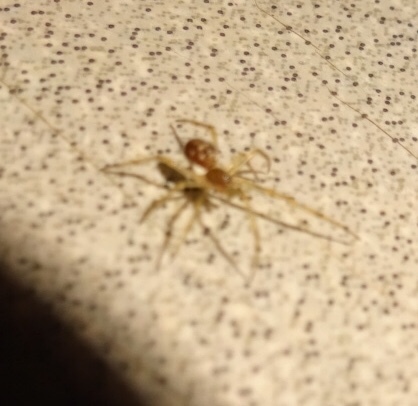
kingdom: Animalia
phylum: Arthropoda
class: Arachnida
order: Araneae
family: Theridiidae
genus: Steatoda
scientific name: Steatoda triangulosa
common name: Triangulate bud spider
